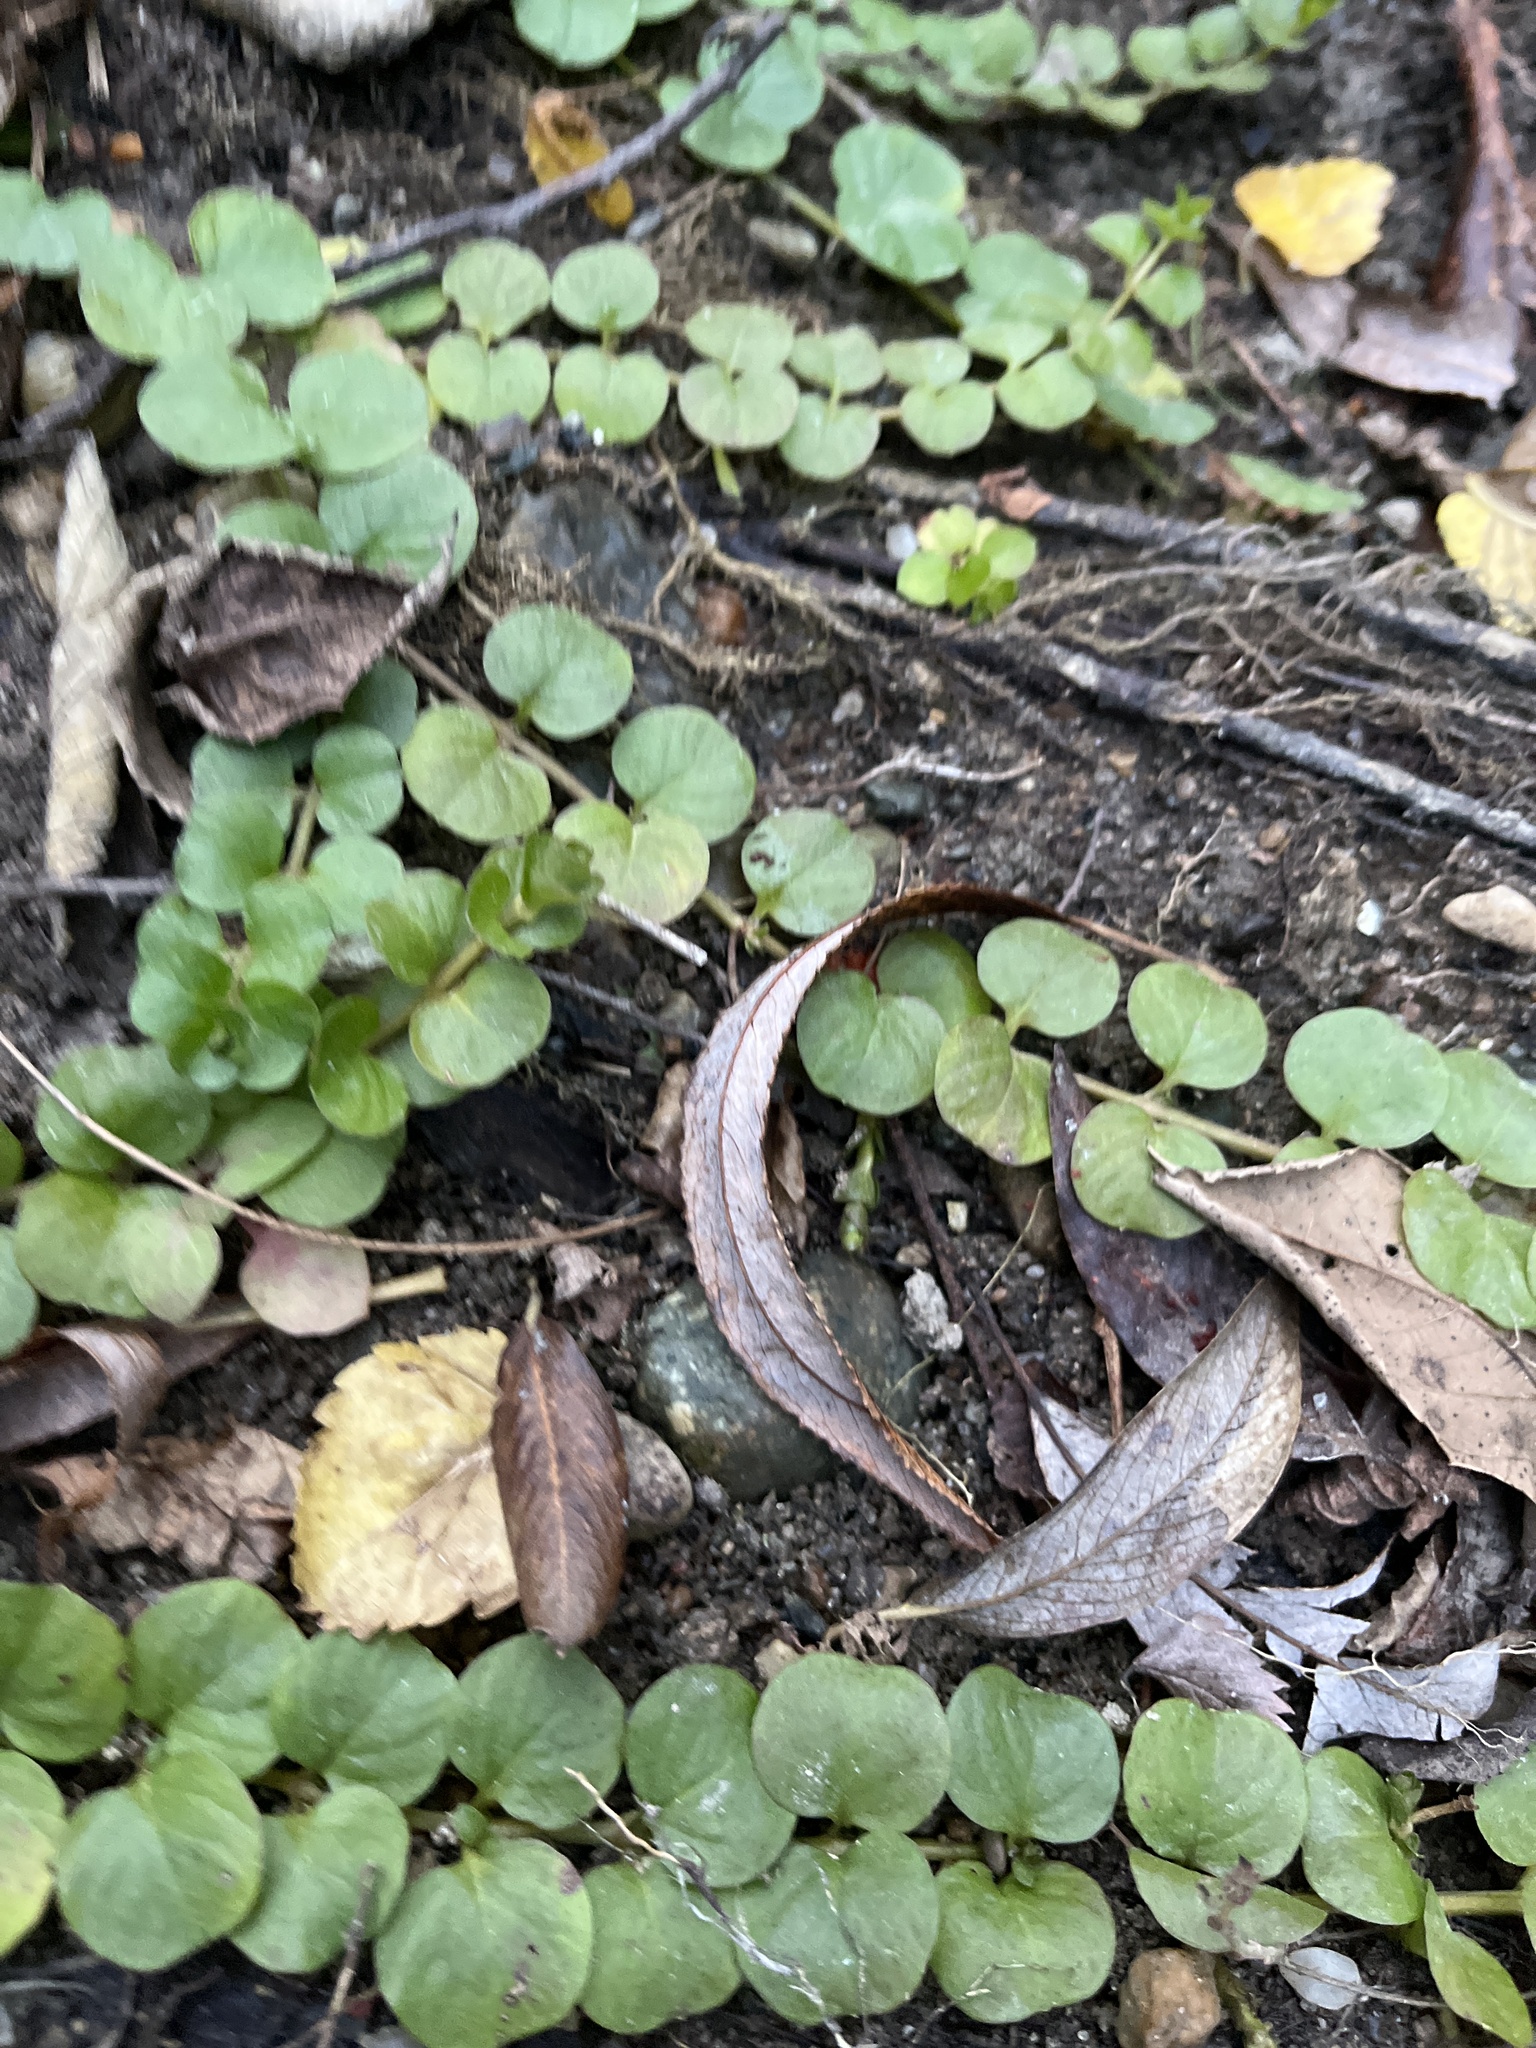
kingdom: Plantae
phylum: Tracheophyta
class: Magnoliopsida
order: Ericales
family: Primulaceae
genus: Lysimachia
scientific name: Lysimachia nummularia
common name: Moneywort
